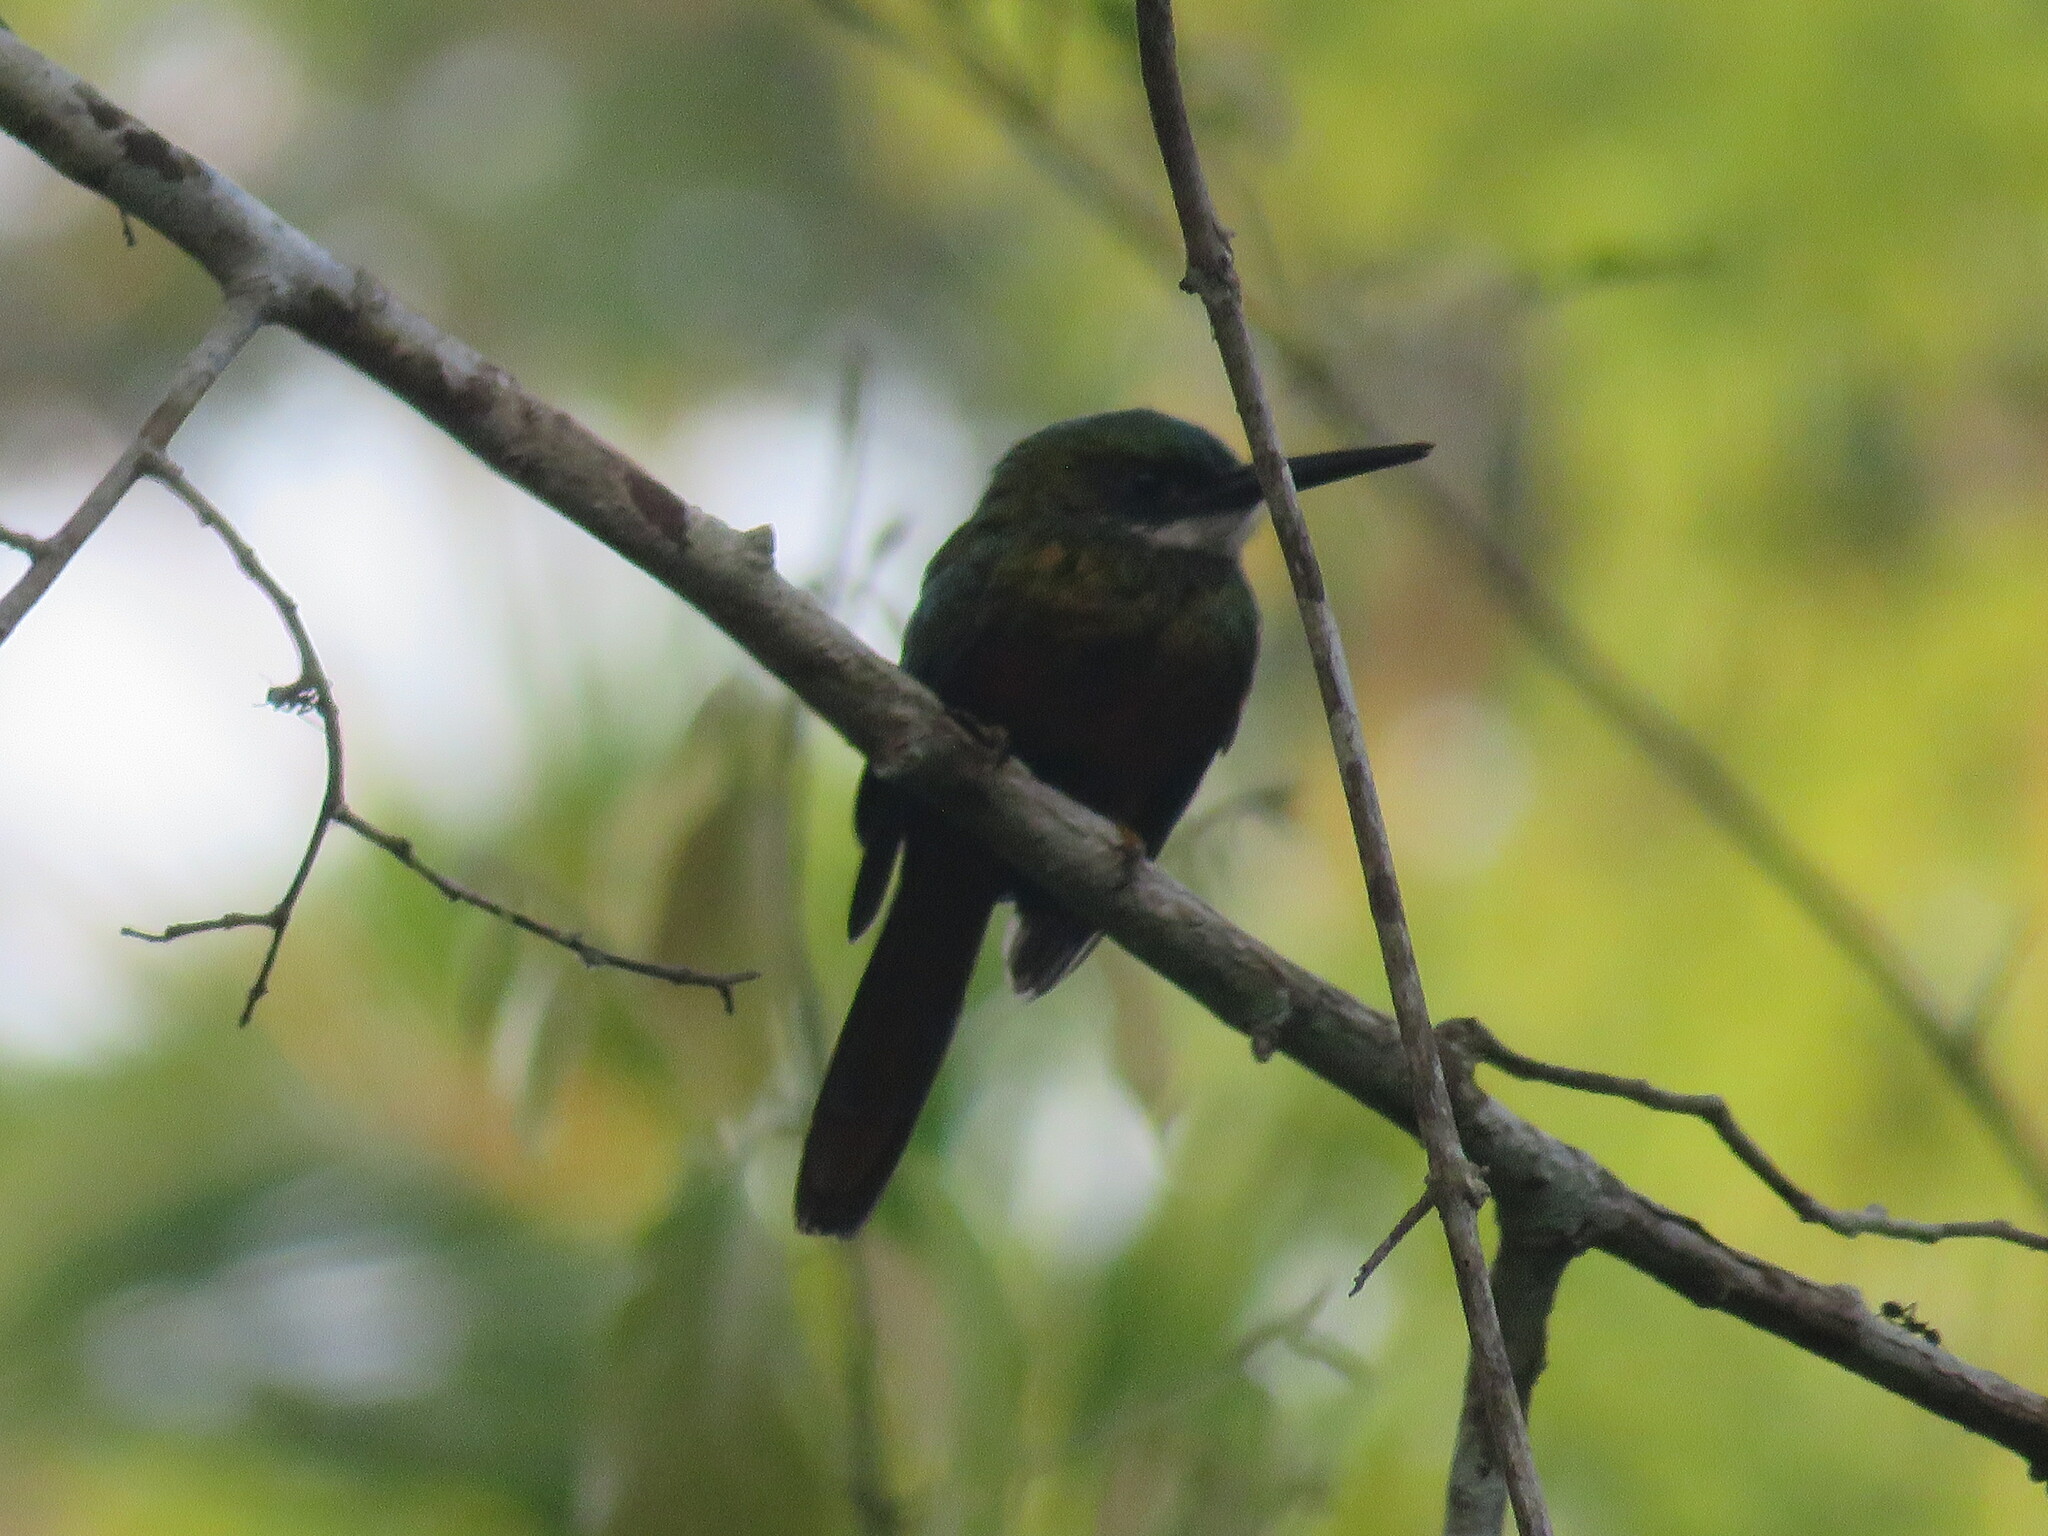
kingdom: Animalia
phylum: Chordata
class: Aves
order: Piciformes
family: Galbulidae
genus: Galbula
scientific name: Galbula ruficauda
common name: Rufous-tailed jacamar
